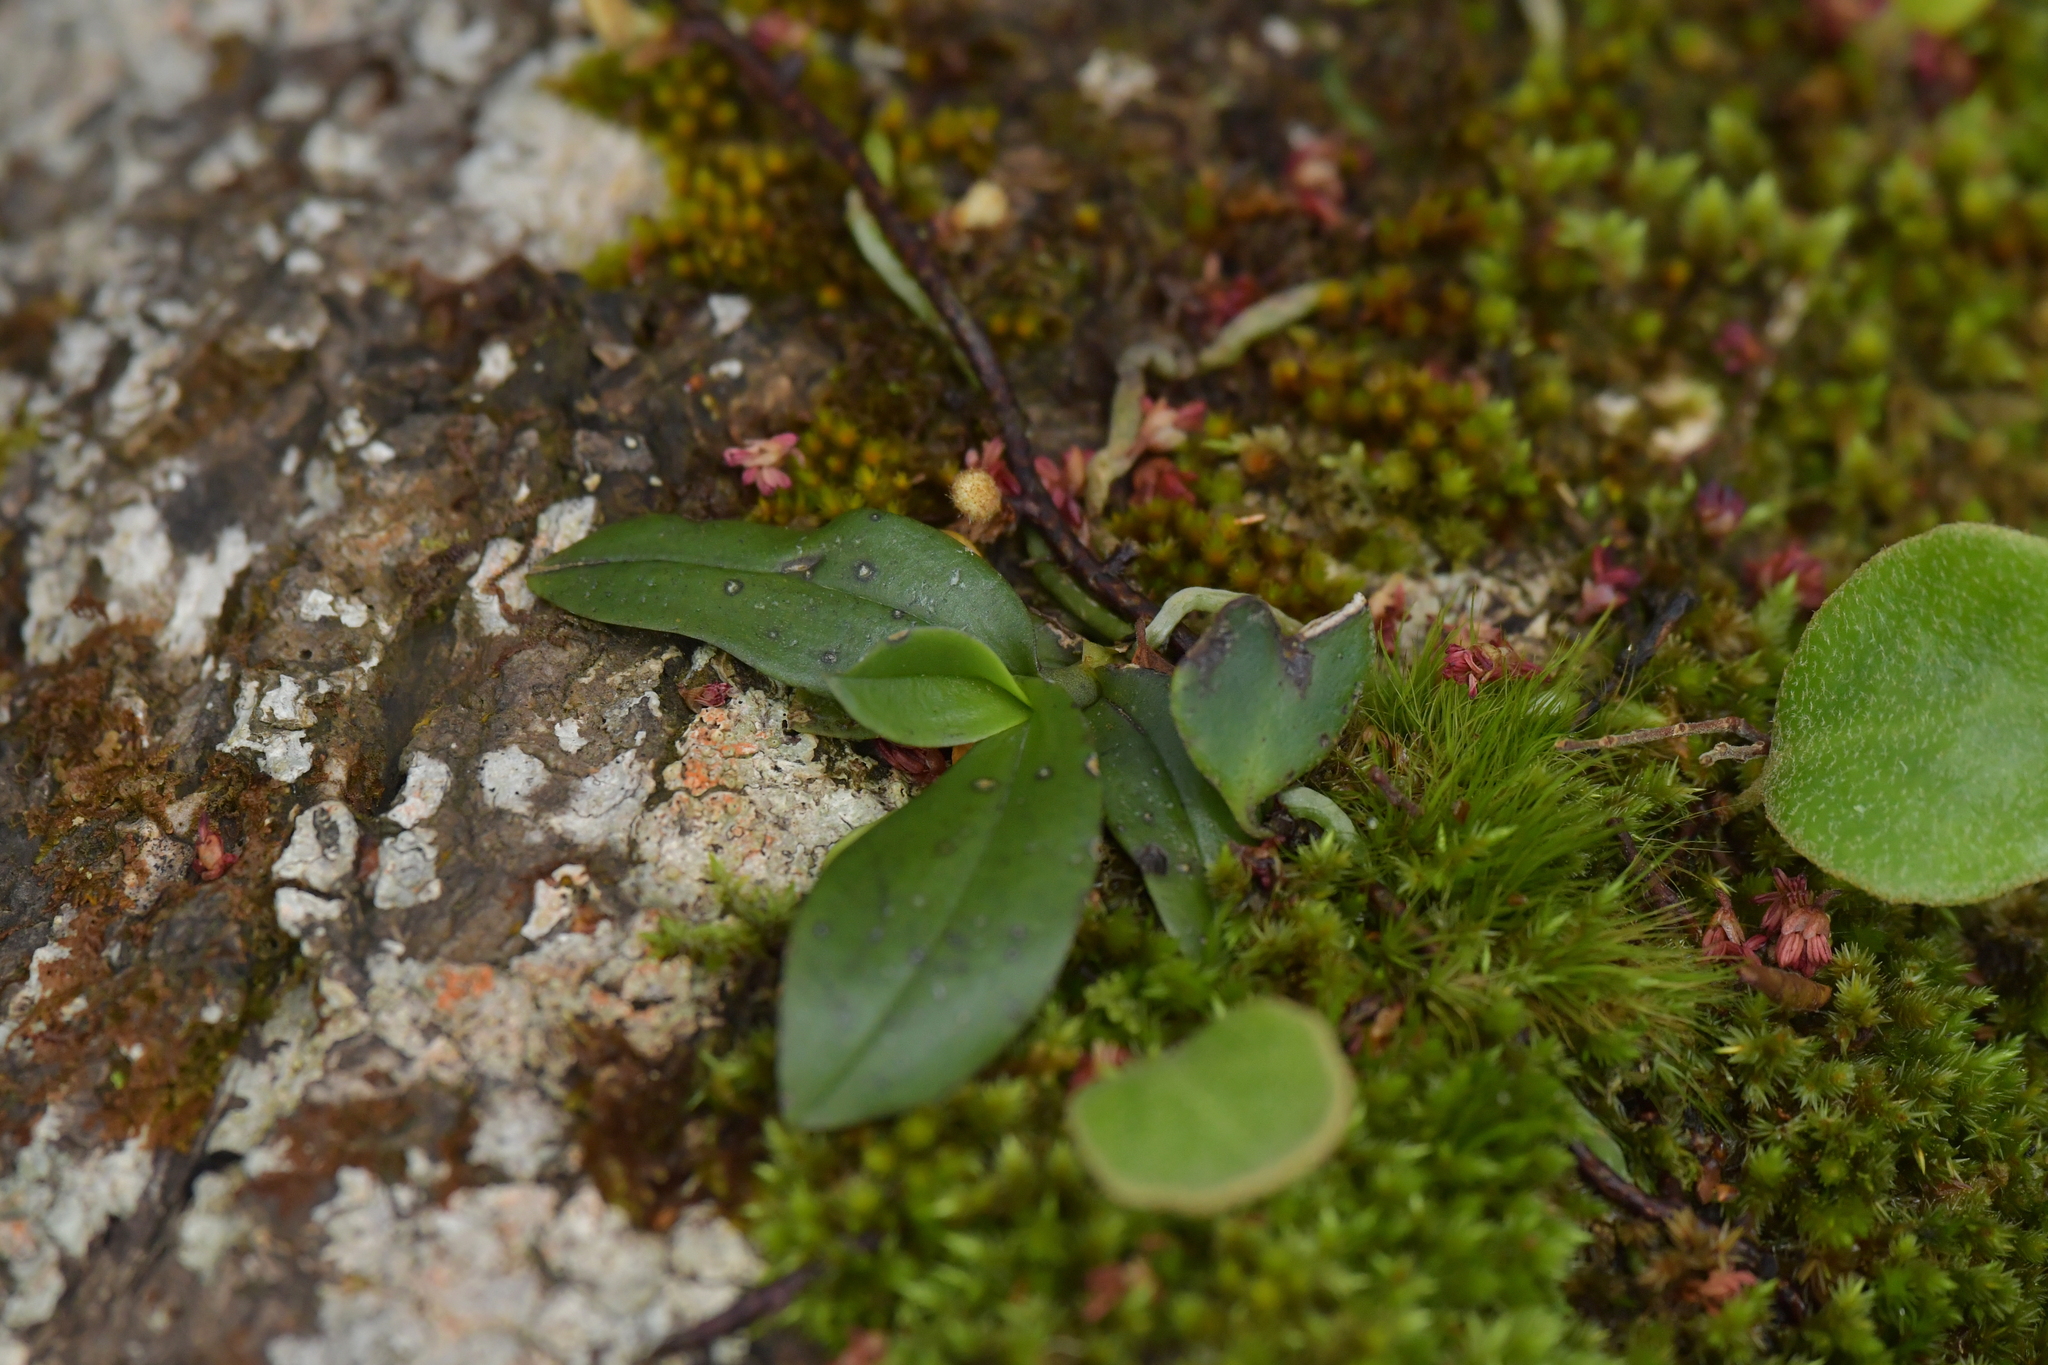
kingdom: Plantae
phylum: Tracheophyta
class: Liliopsida
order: Asparagales
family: Orchidaceae
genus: Drymoanthus
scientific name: Drymoanthus adversus
